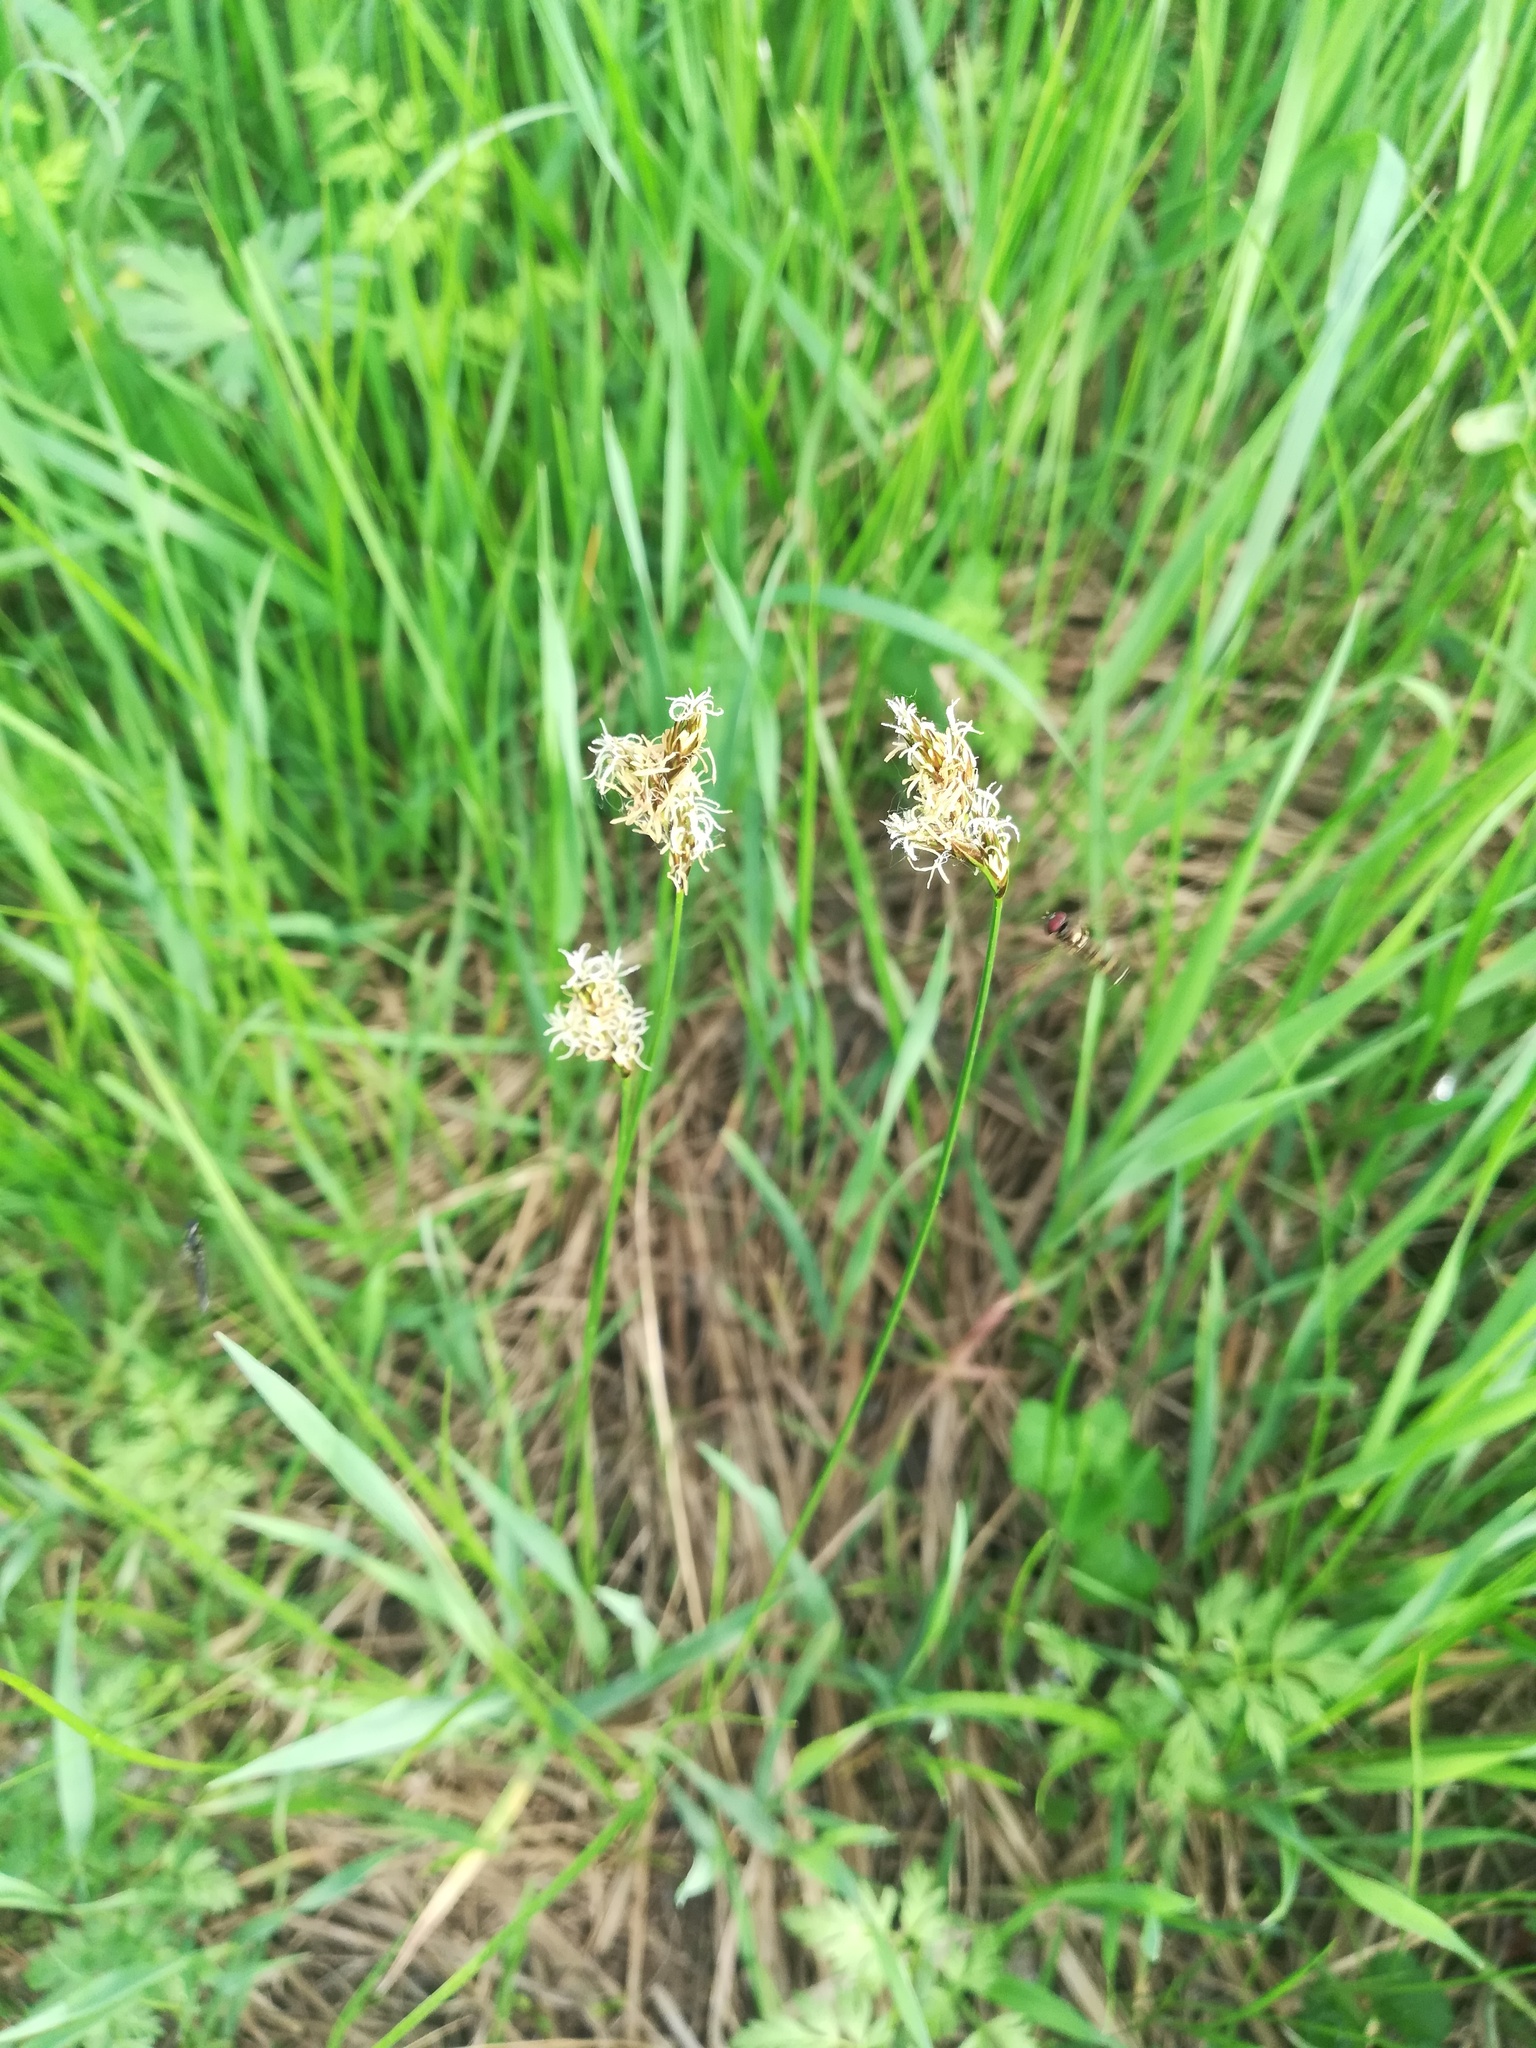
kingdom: Plantae
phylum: Tracheophyta
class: Liliopsida
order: Poales
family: Cyperaceae
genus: Carex
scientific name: Carex praecox
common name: Early sedge
